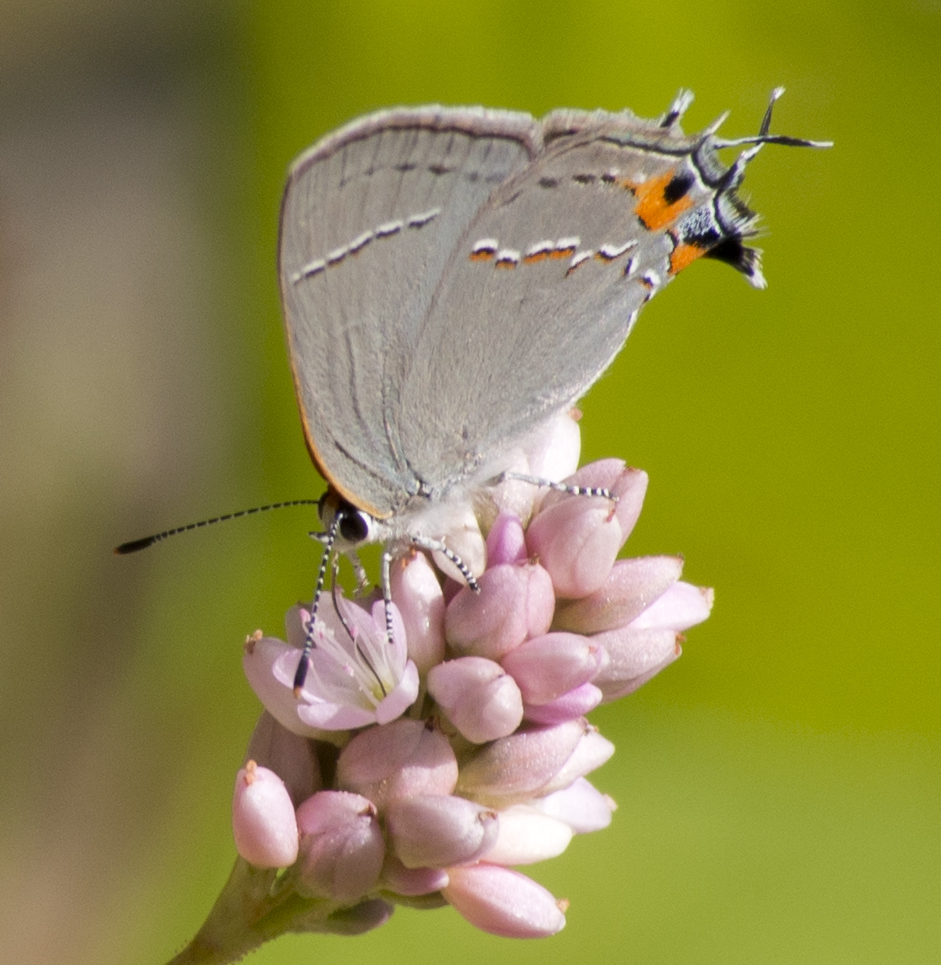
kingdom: Animalia
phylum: Arthropoda
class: Insecta
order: Lepidoptera
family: Lycaenidae
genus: Strymon
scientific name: Strymon melinus
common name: Gray hairstreak
